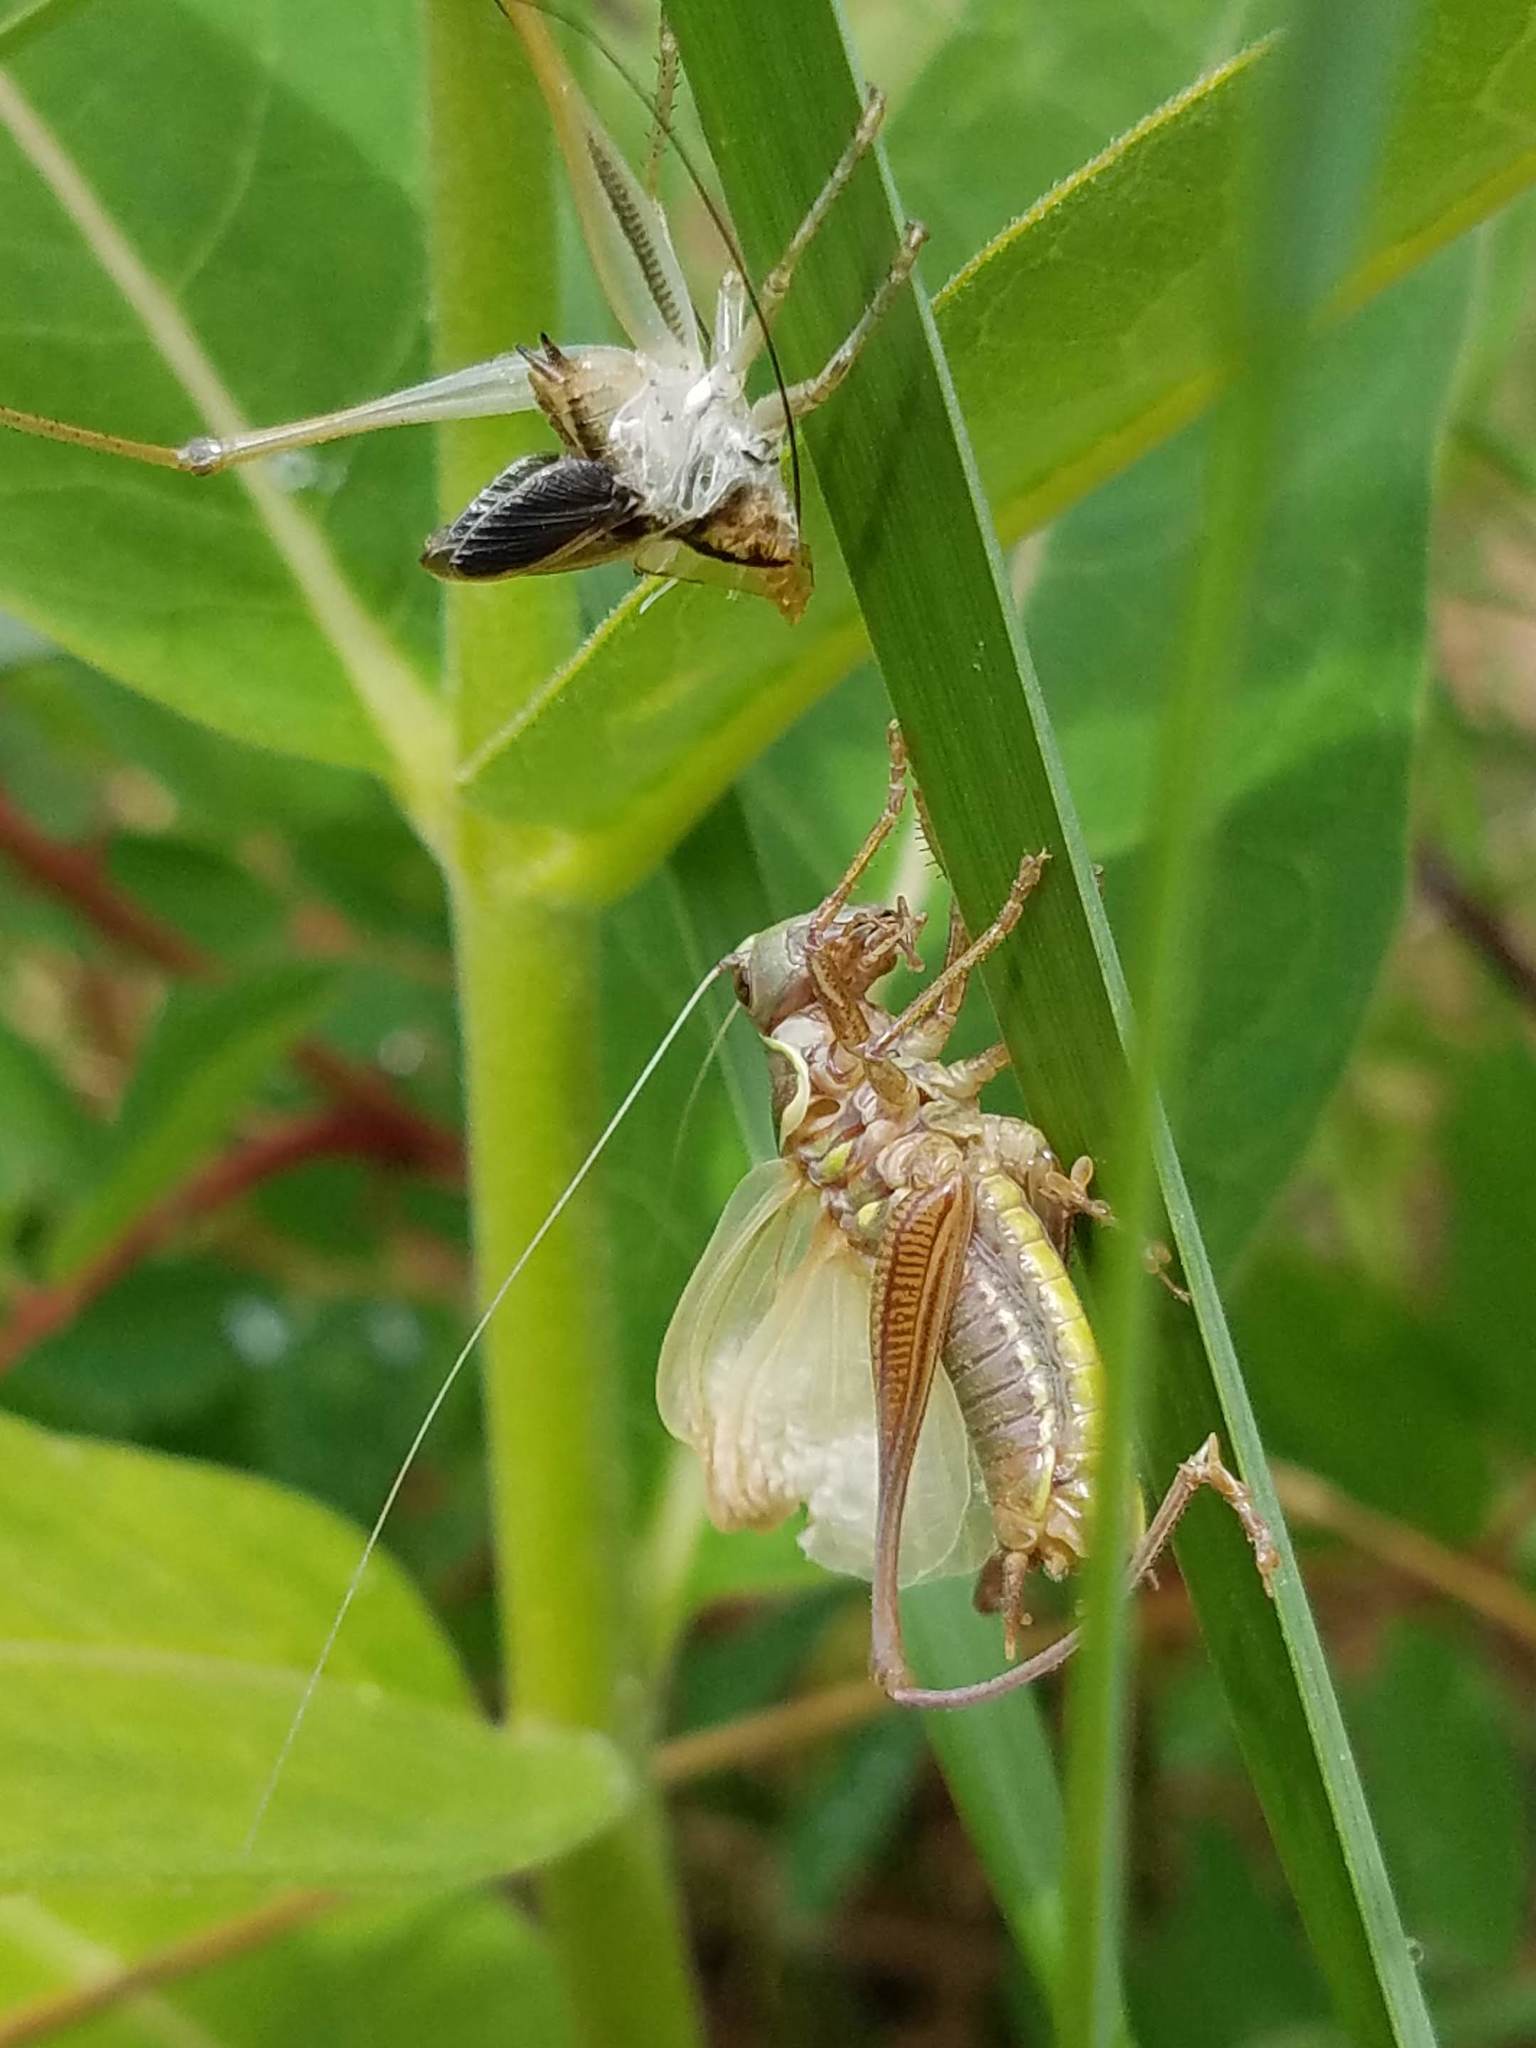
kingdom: Animalia
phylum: Arthropoda
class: Insecta
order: Orthoptera
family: Tettigoniidae
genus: Roeseliana
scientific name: Roeseliana roeselii
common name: Roesel's bush cricket
